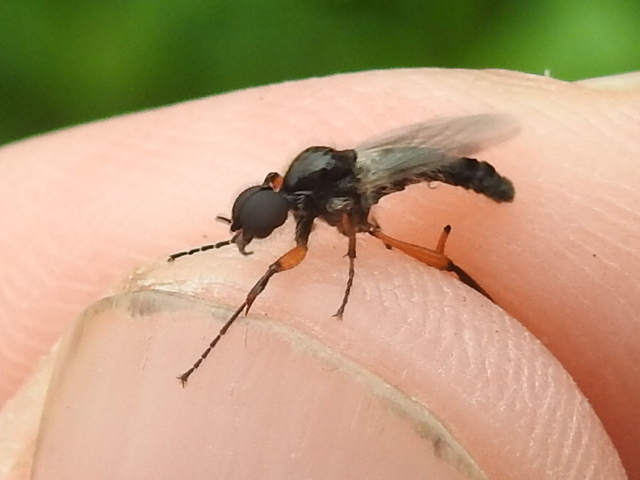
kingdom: Animalia
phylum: Arthropoda
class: Insecta
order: Diptera
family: Bibionidae
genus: Bibio
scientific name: Bibio
